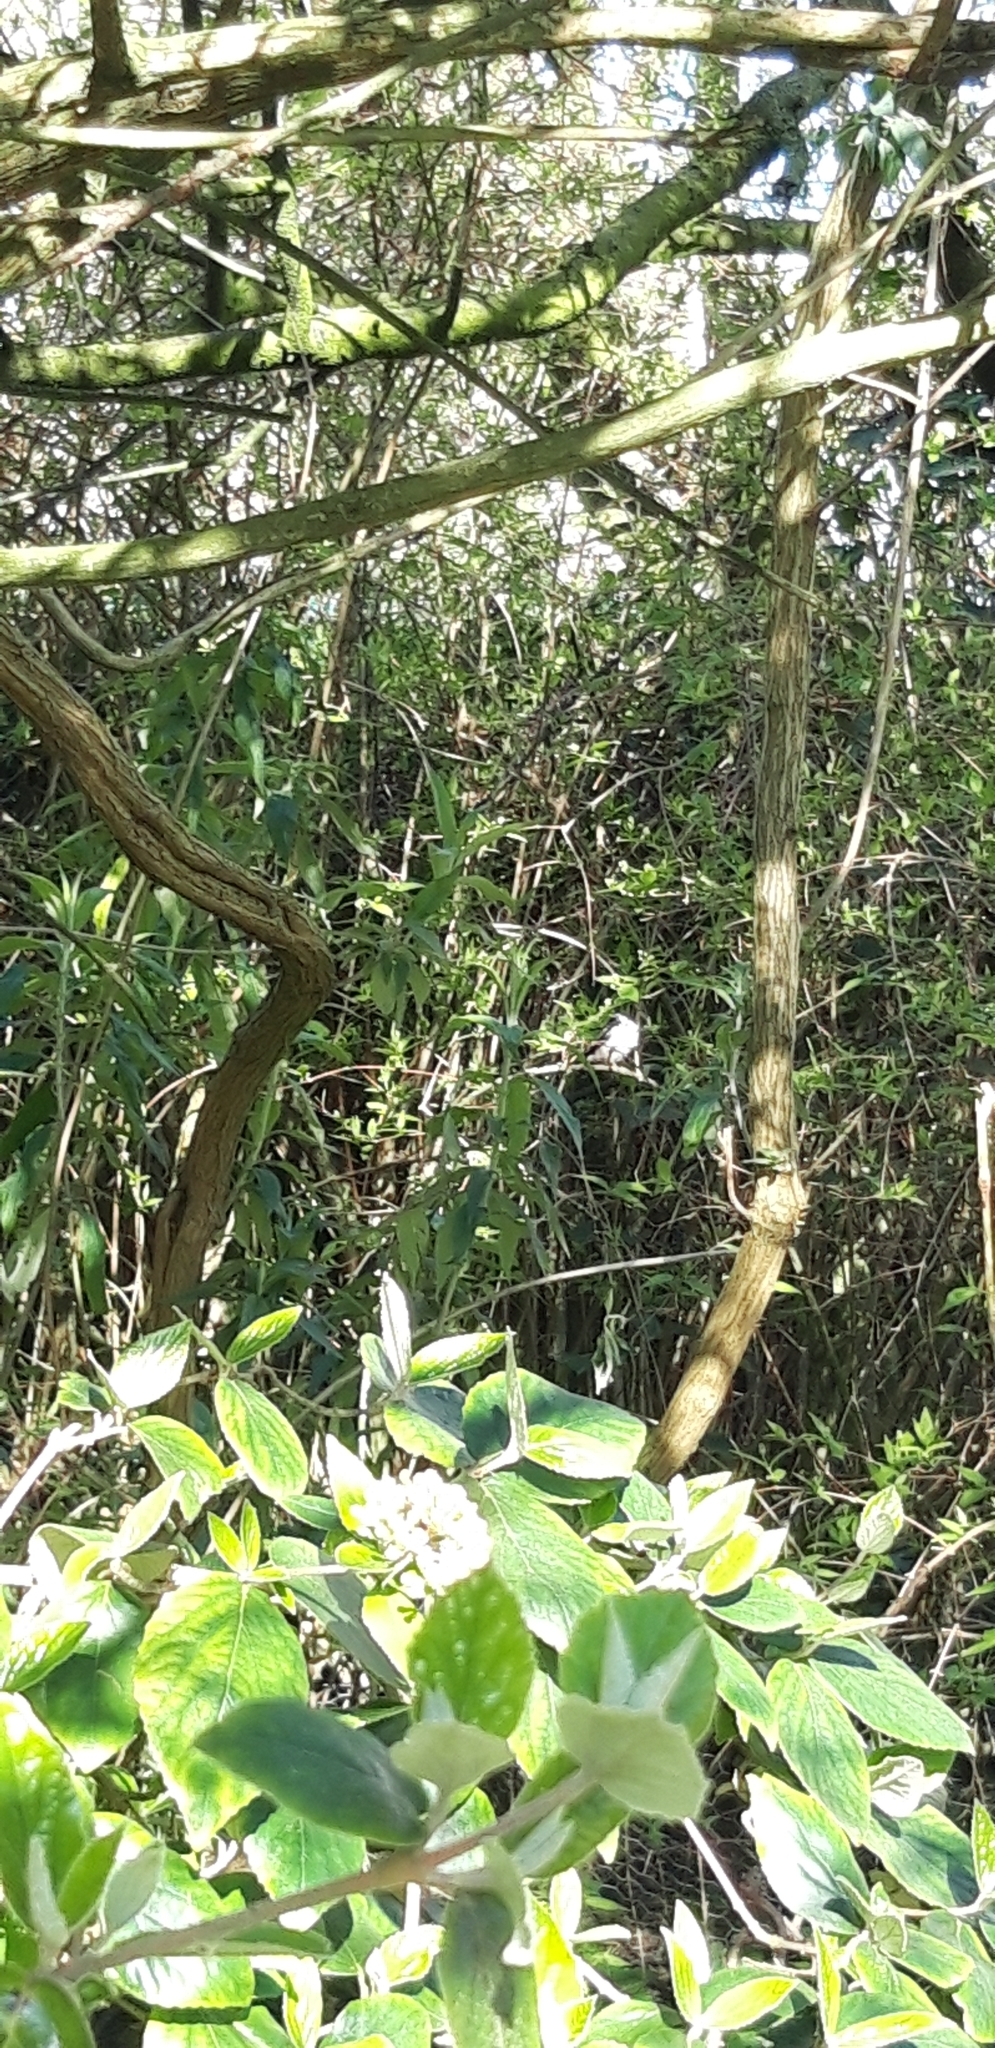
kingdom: Animalia
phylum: Chordata
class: Aves
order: Passeriformes
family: Aegithalidae
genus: Aegithalos
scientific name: Aegithalos caudatus
